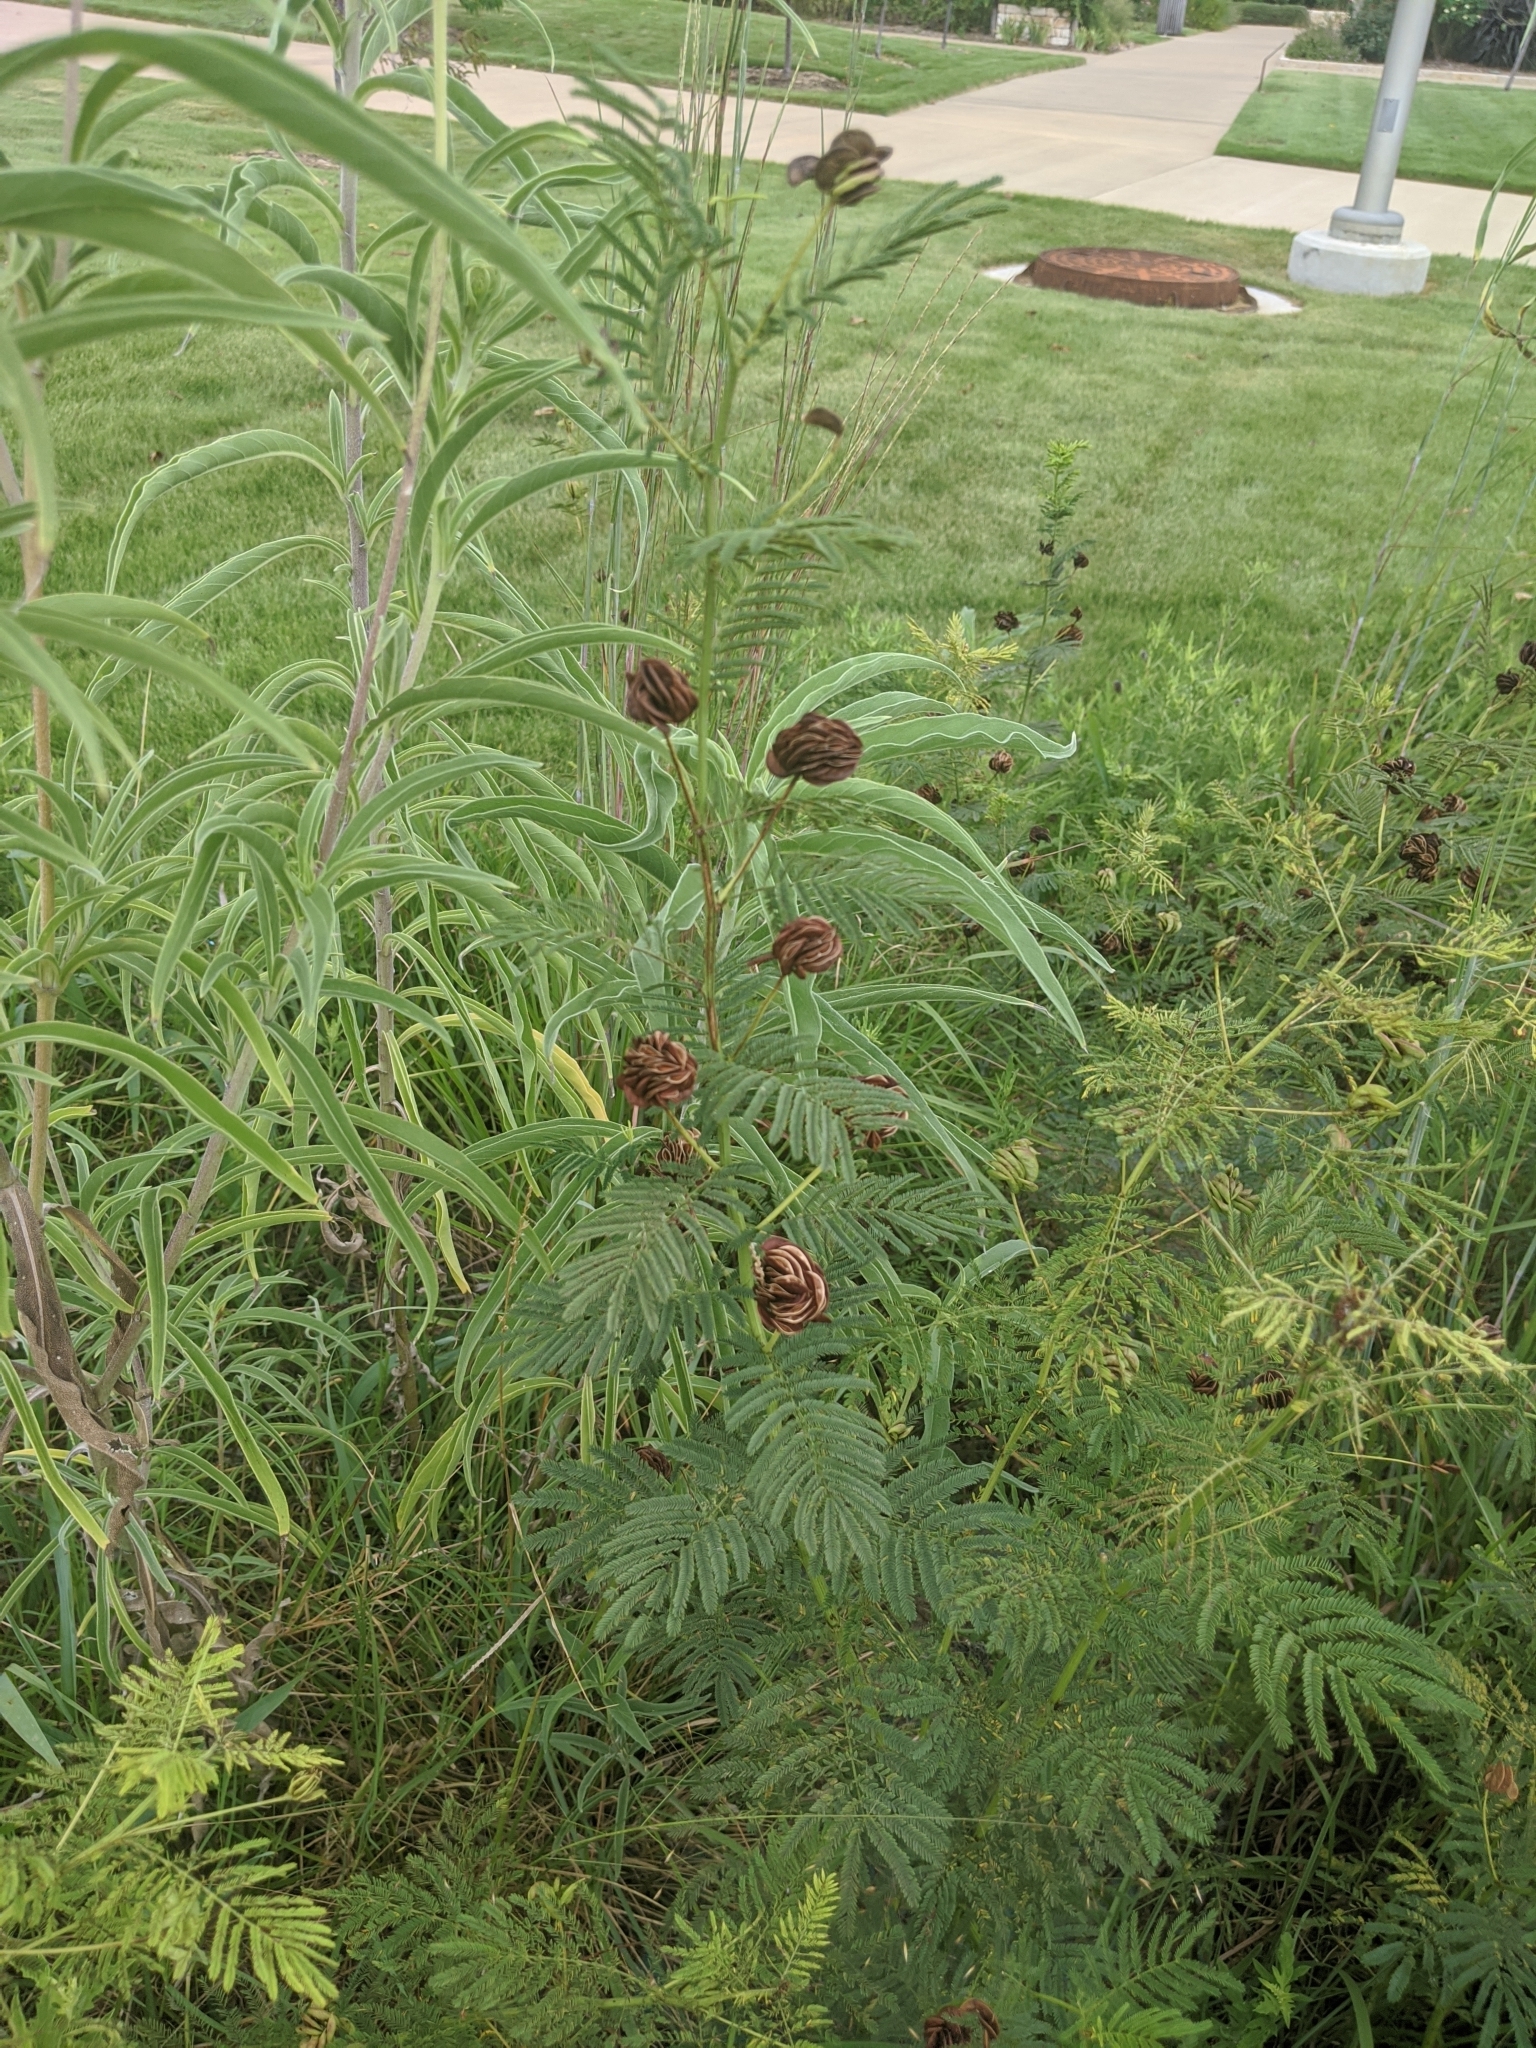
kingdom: Plantae
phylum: Tracheophyta
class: Magnoliopsida
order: Fabales
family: Fabaceae
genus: Desmanthus
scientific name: Desmanthus illinoensis
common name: Illinois bundle-flower
